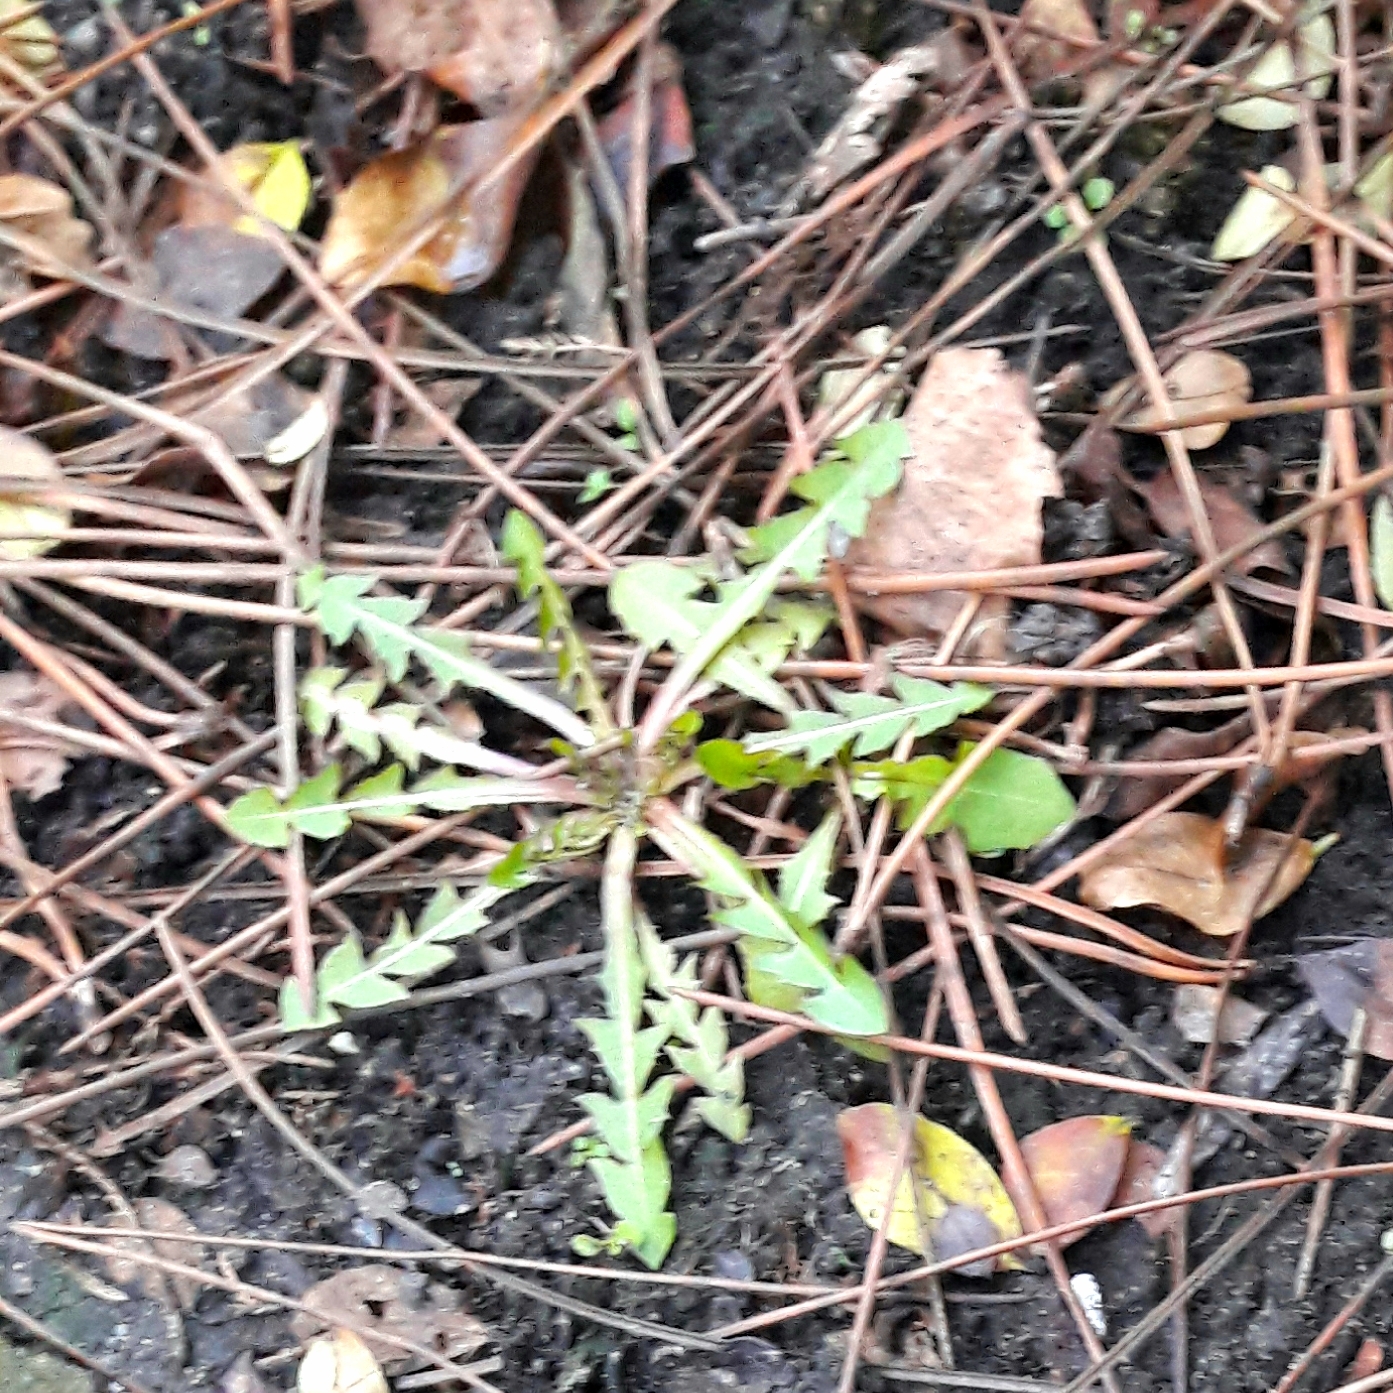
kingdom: Plantae
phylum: Tracheophyta
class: Magnoliopsida
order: Asterales
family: Asteraceae
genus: Taraxacum
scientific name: Taraxacum officinale
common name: Common dandelion
